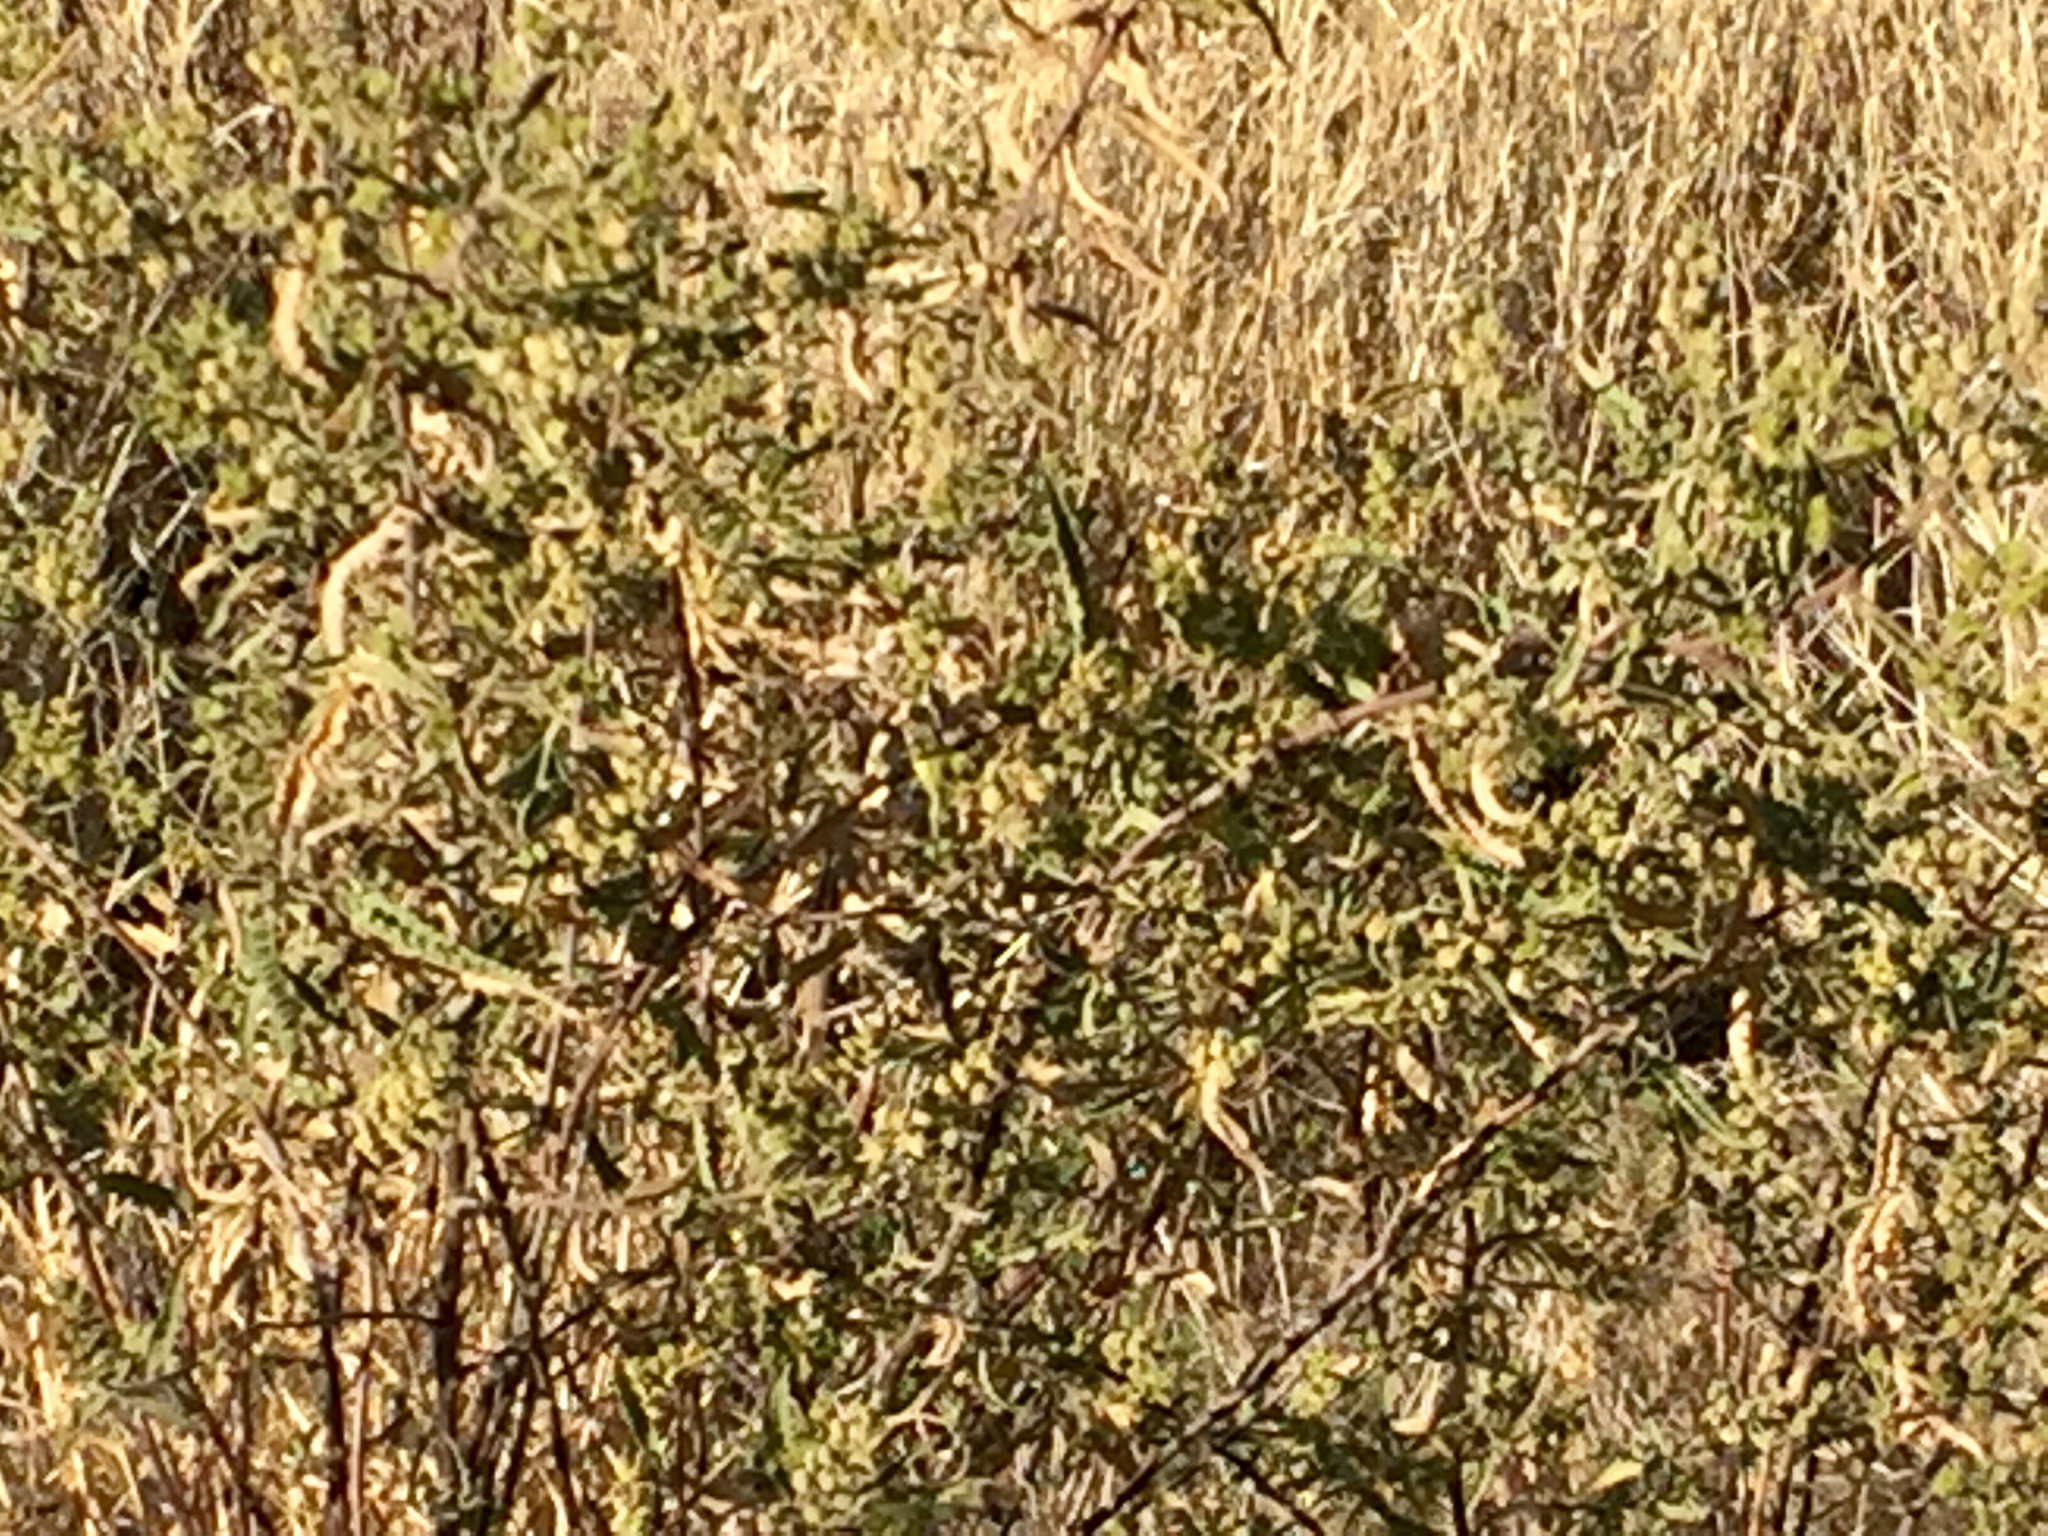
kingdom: Plantae
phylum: Tracheophyta
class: Magnoliopsida
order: Asterales
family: Asteraceae
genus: Ambrosia
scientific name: Ambrosia ambrosioides
